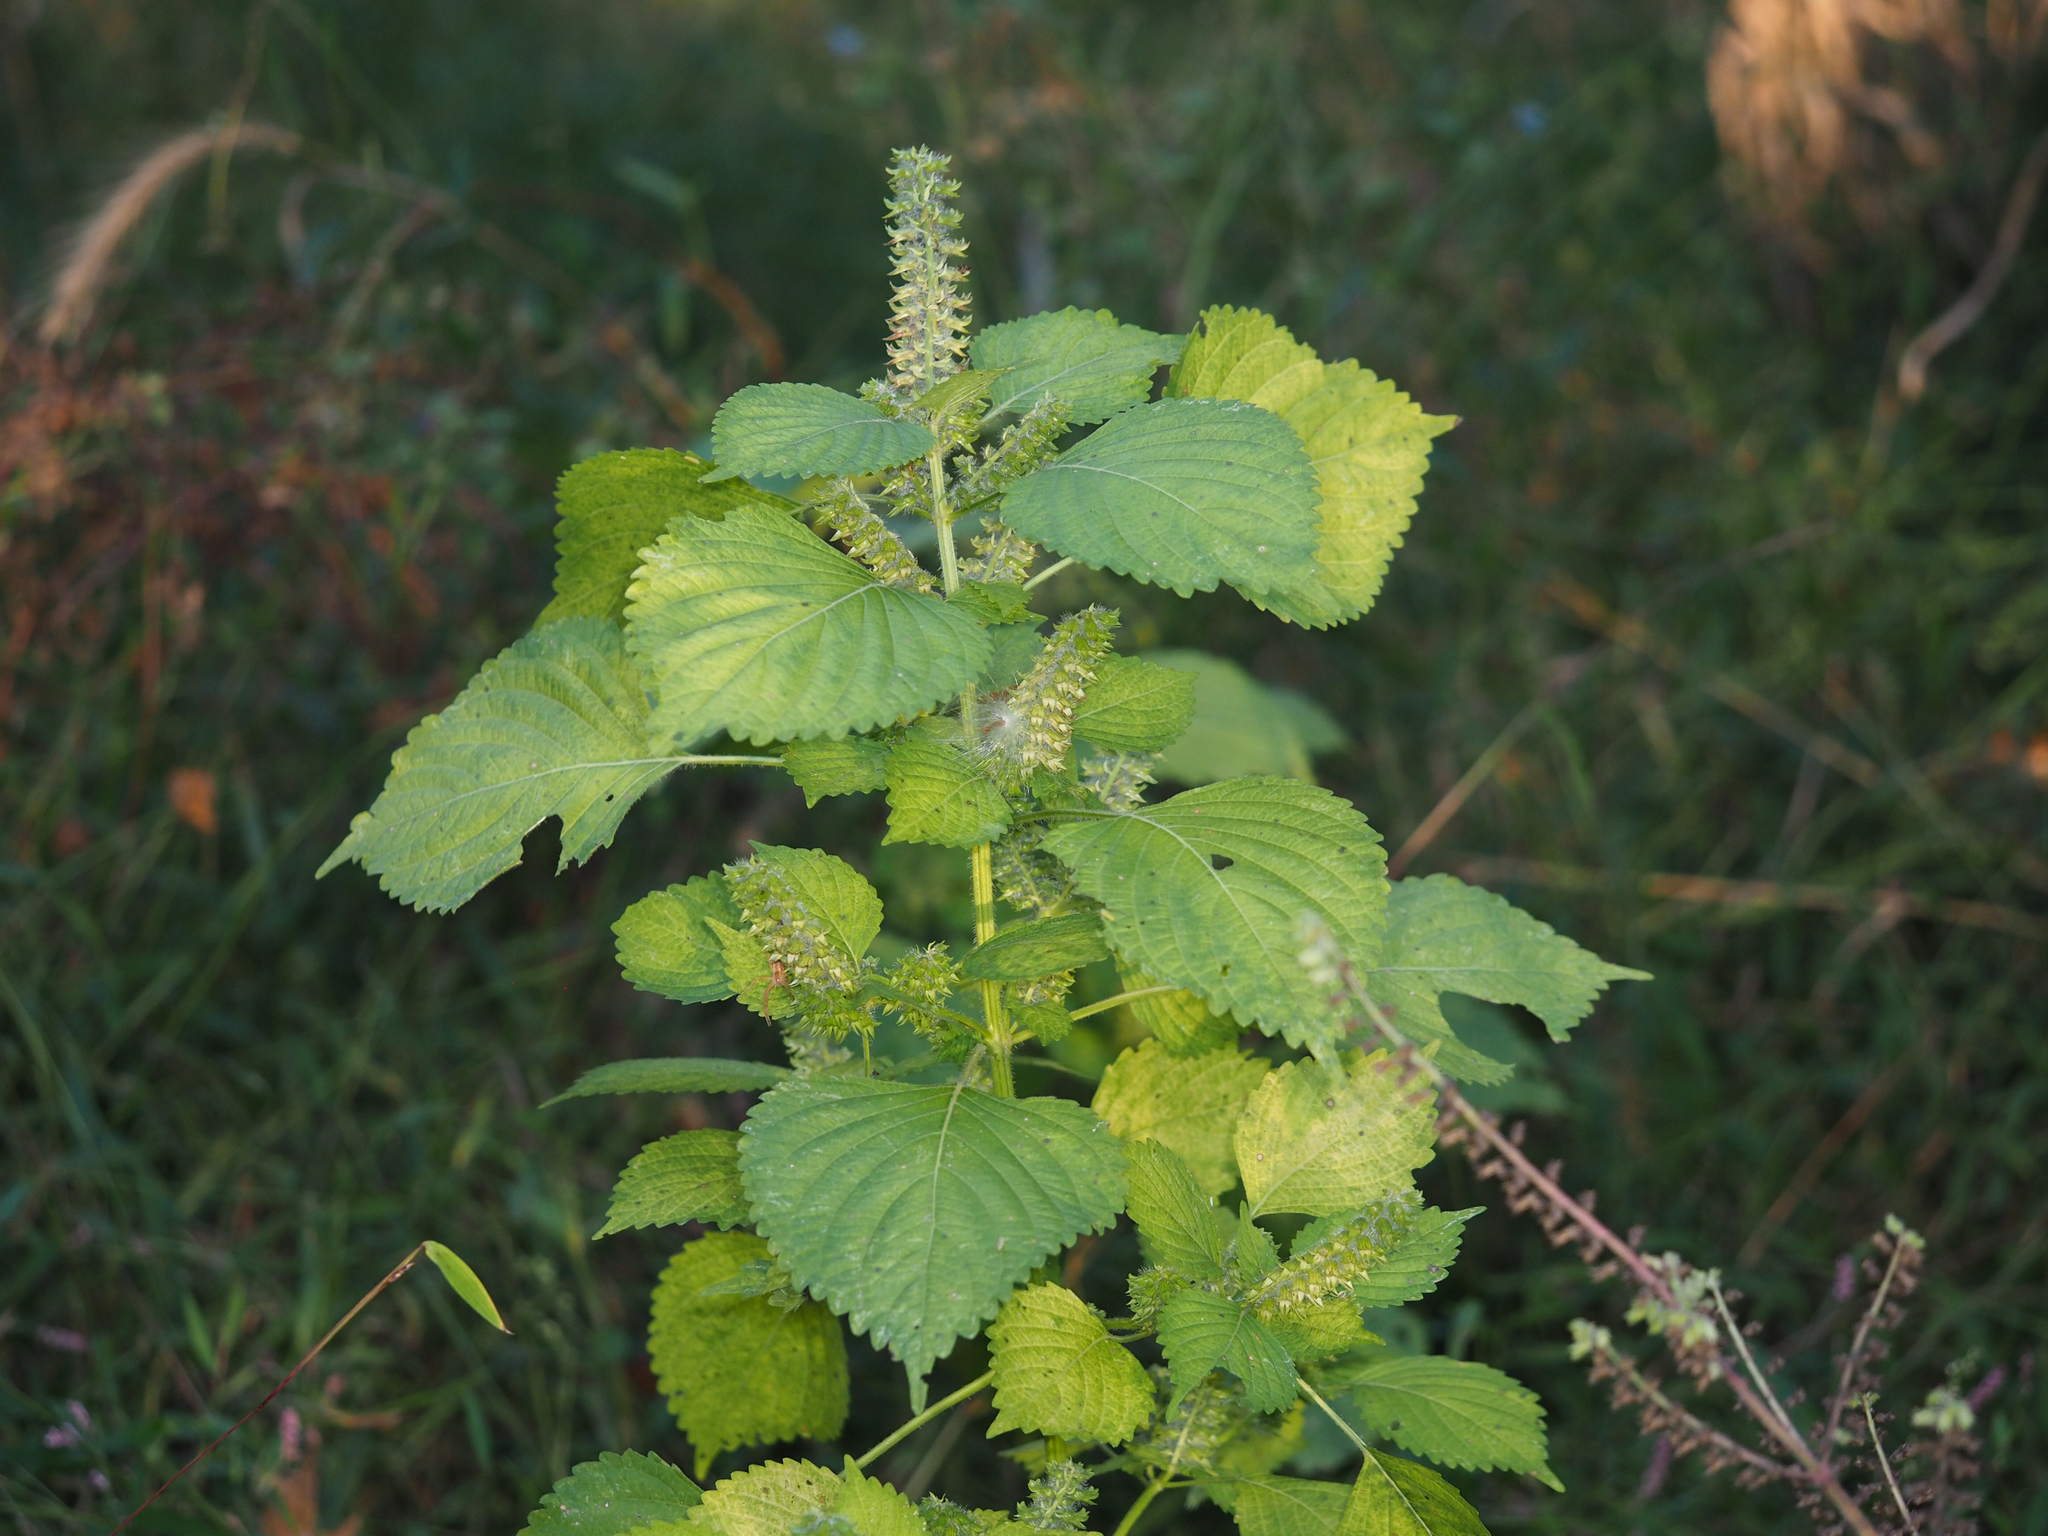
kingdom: Plantae
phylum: Tracheophyta
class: Magnoliopsida
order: Lamiales
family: Lamiaceae
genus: Perilla
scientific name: Perilla frutescens
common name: Perilla
